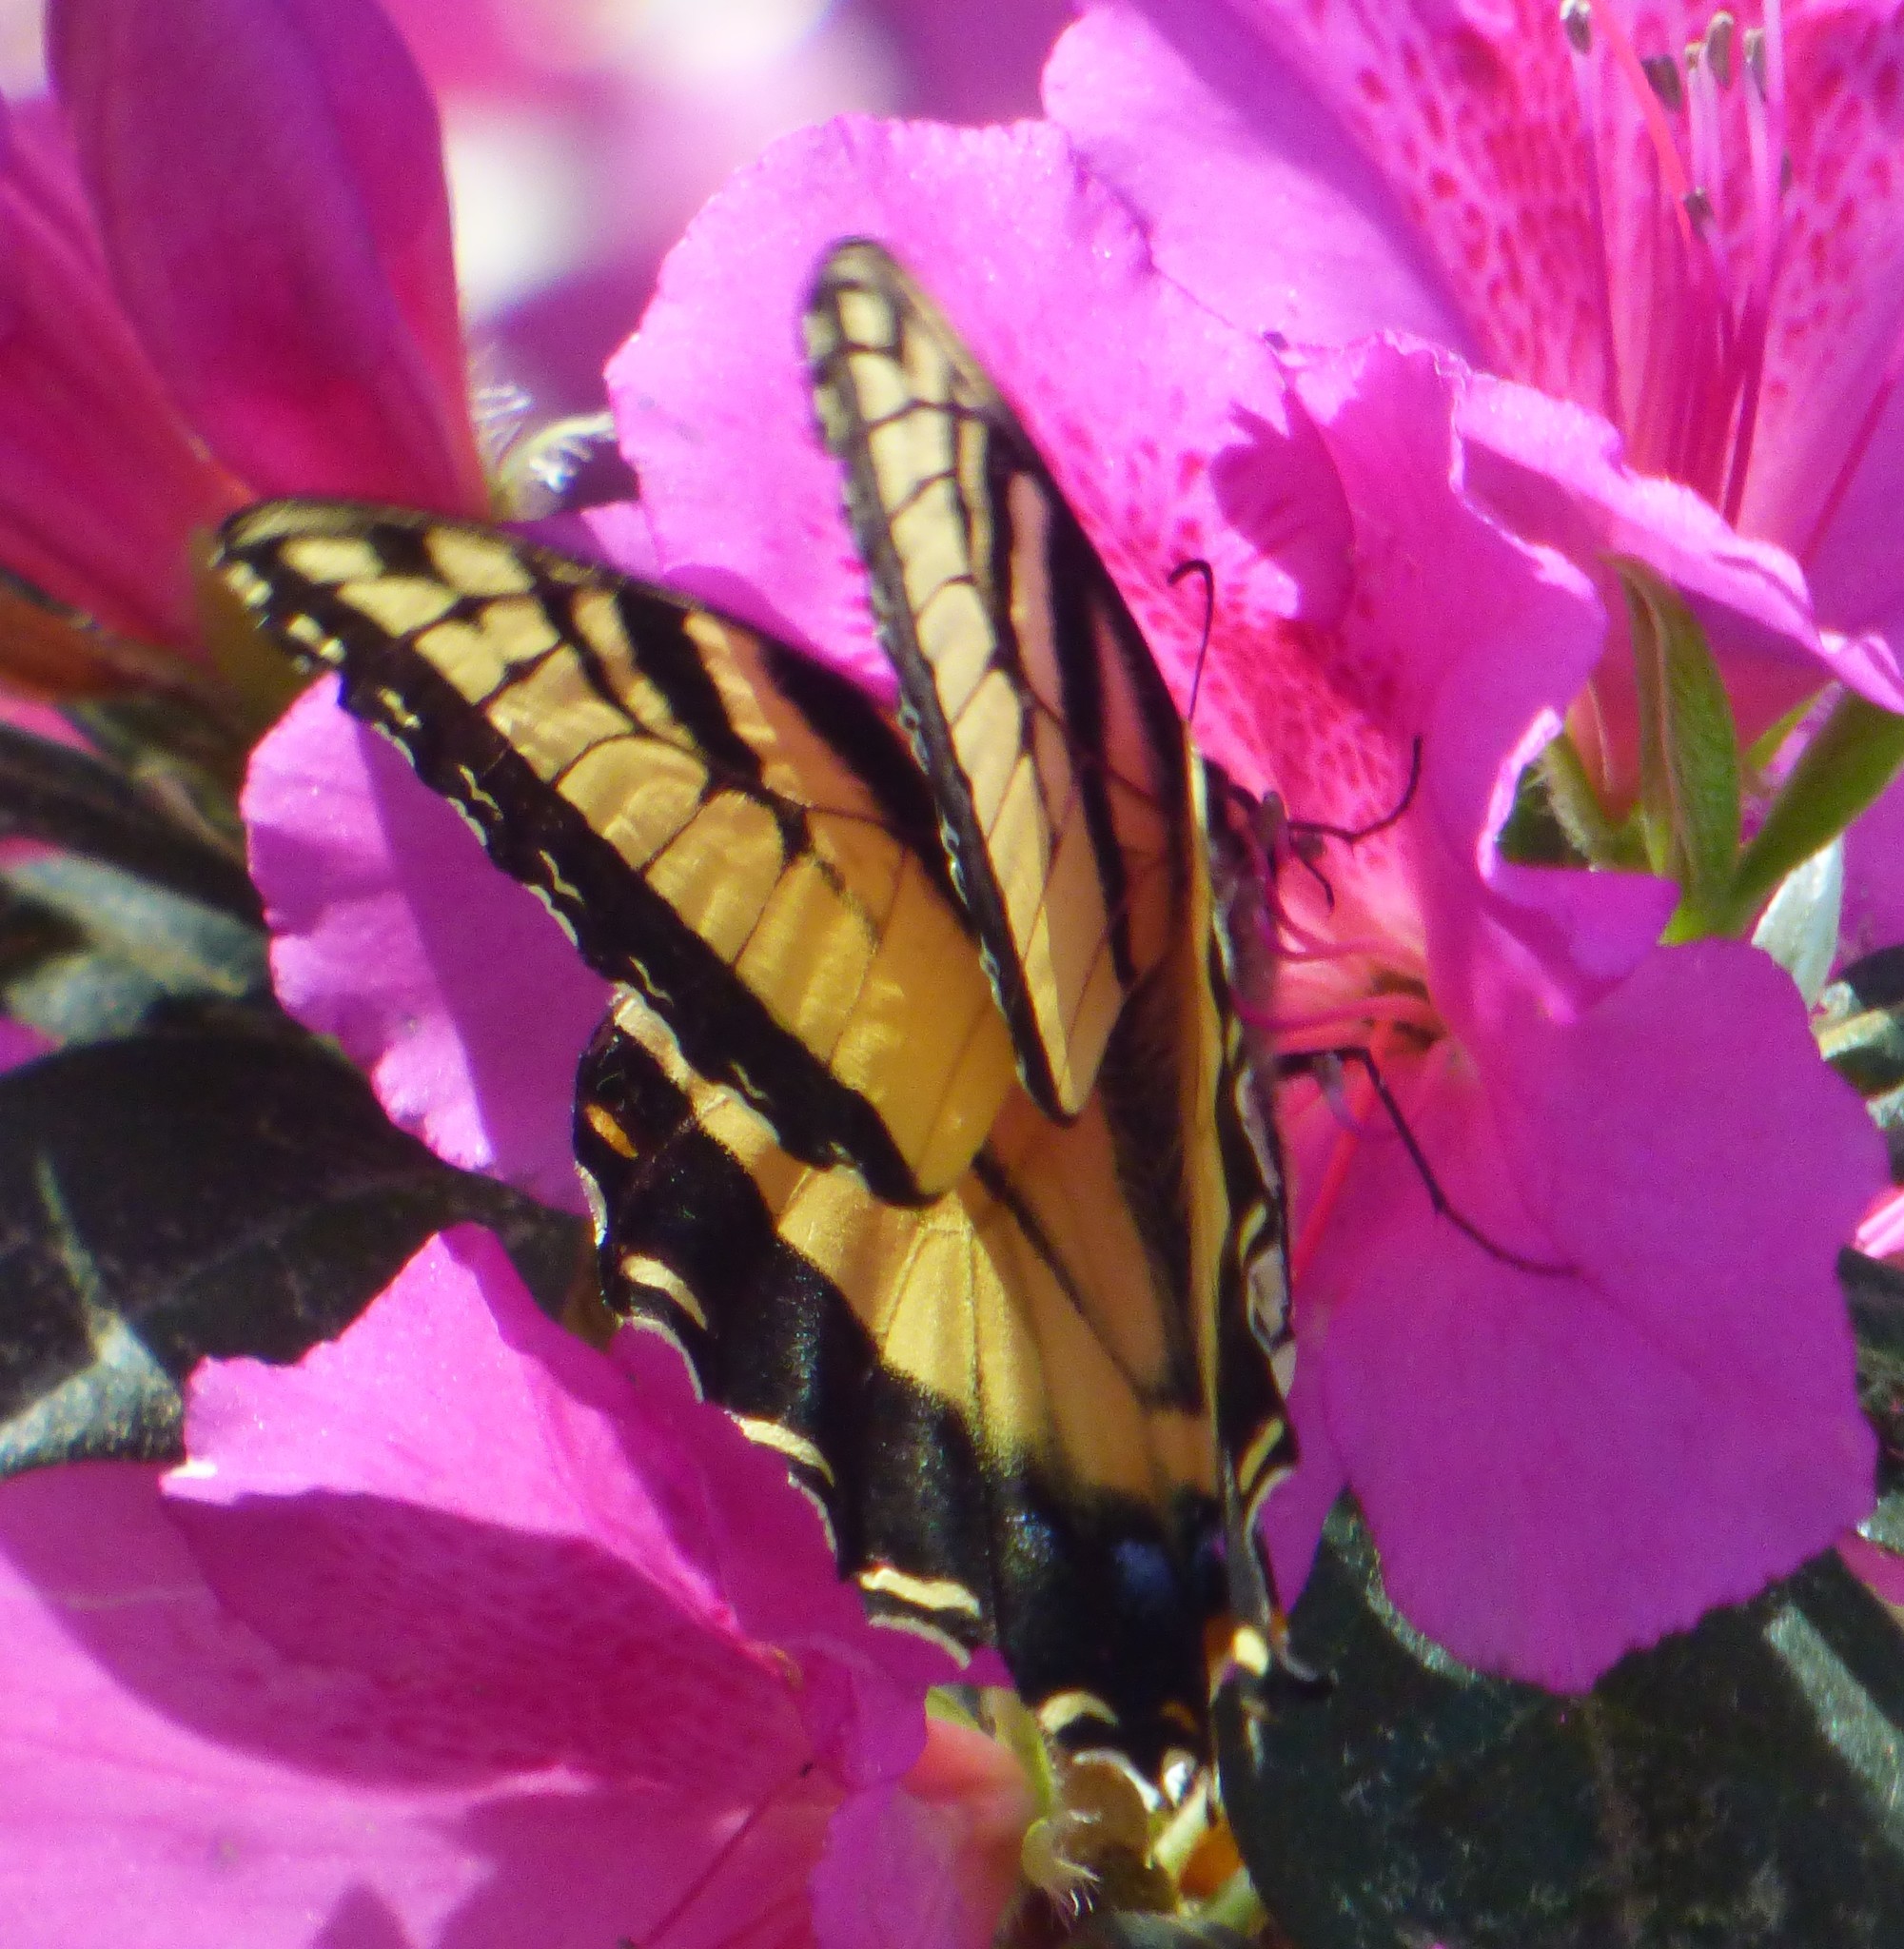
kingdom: Animalia
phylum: Arthropoda
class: Insecta
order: Lepidoptera
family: Papilionidae
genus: Papilio
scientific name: Papilio glaucus
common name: Tiger swallowtail
